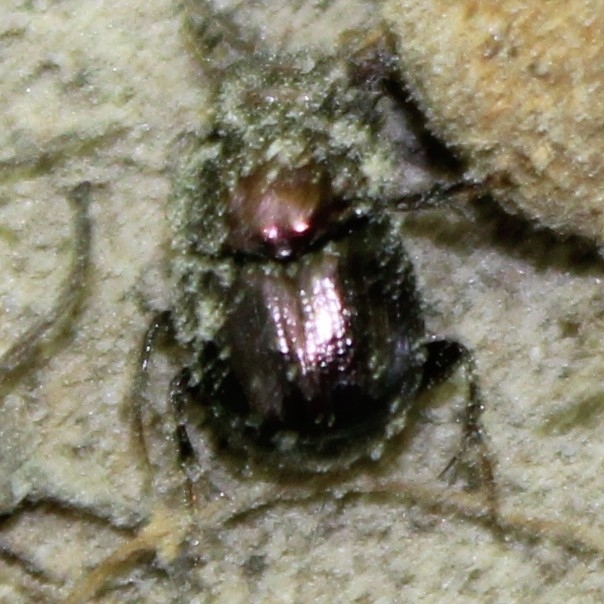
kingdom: Animalia
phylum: Arthropoda
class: Insecta
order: Coleoptera
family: Scarabaeidae
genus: Onthophagus
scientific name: Onthophagus orpheus
